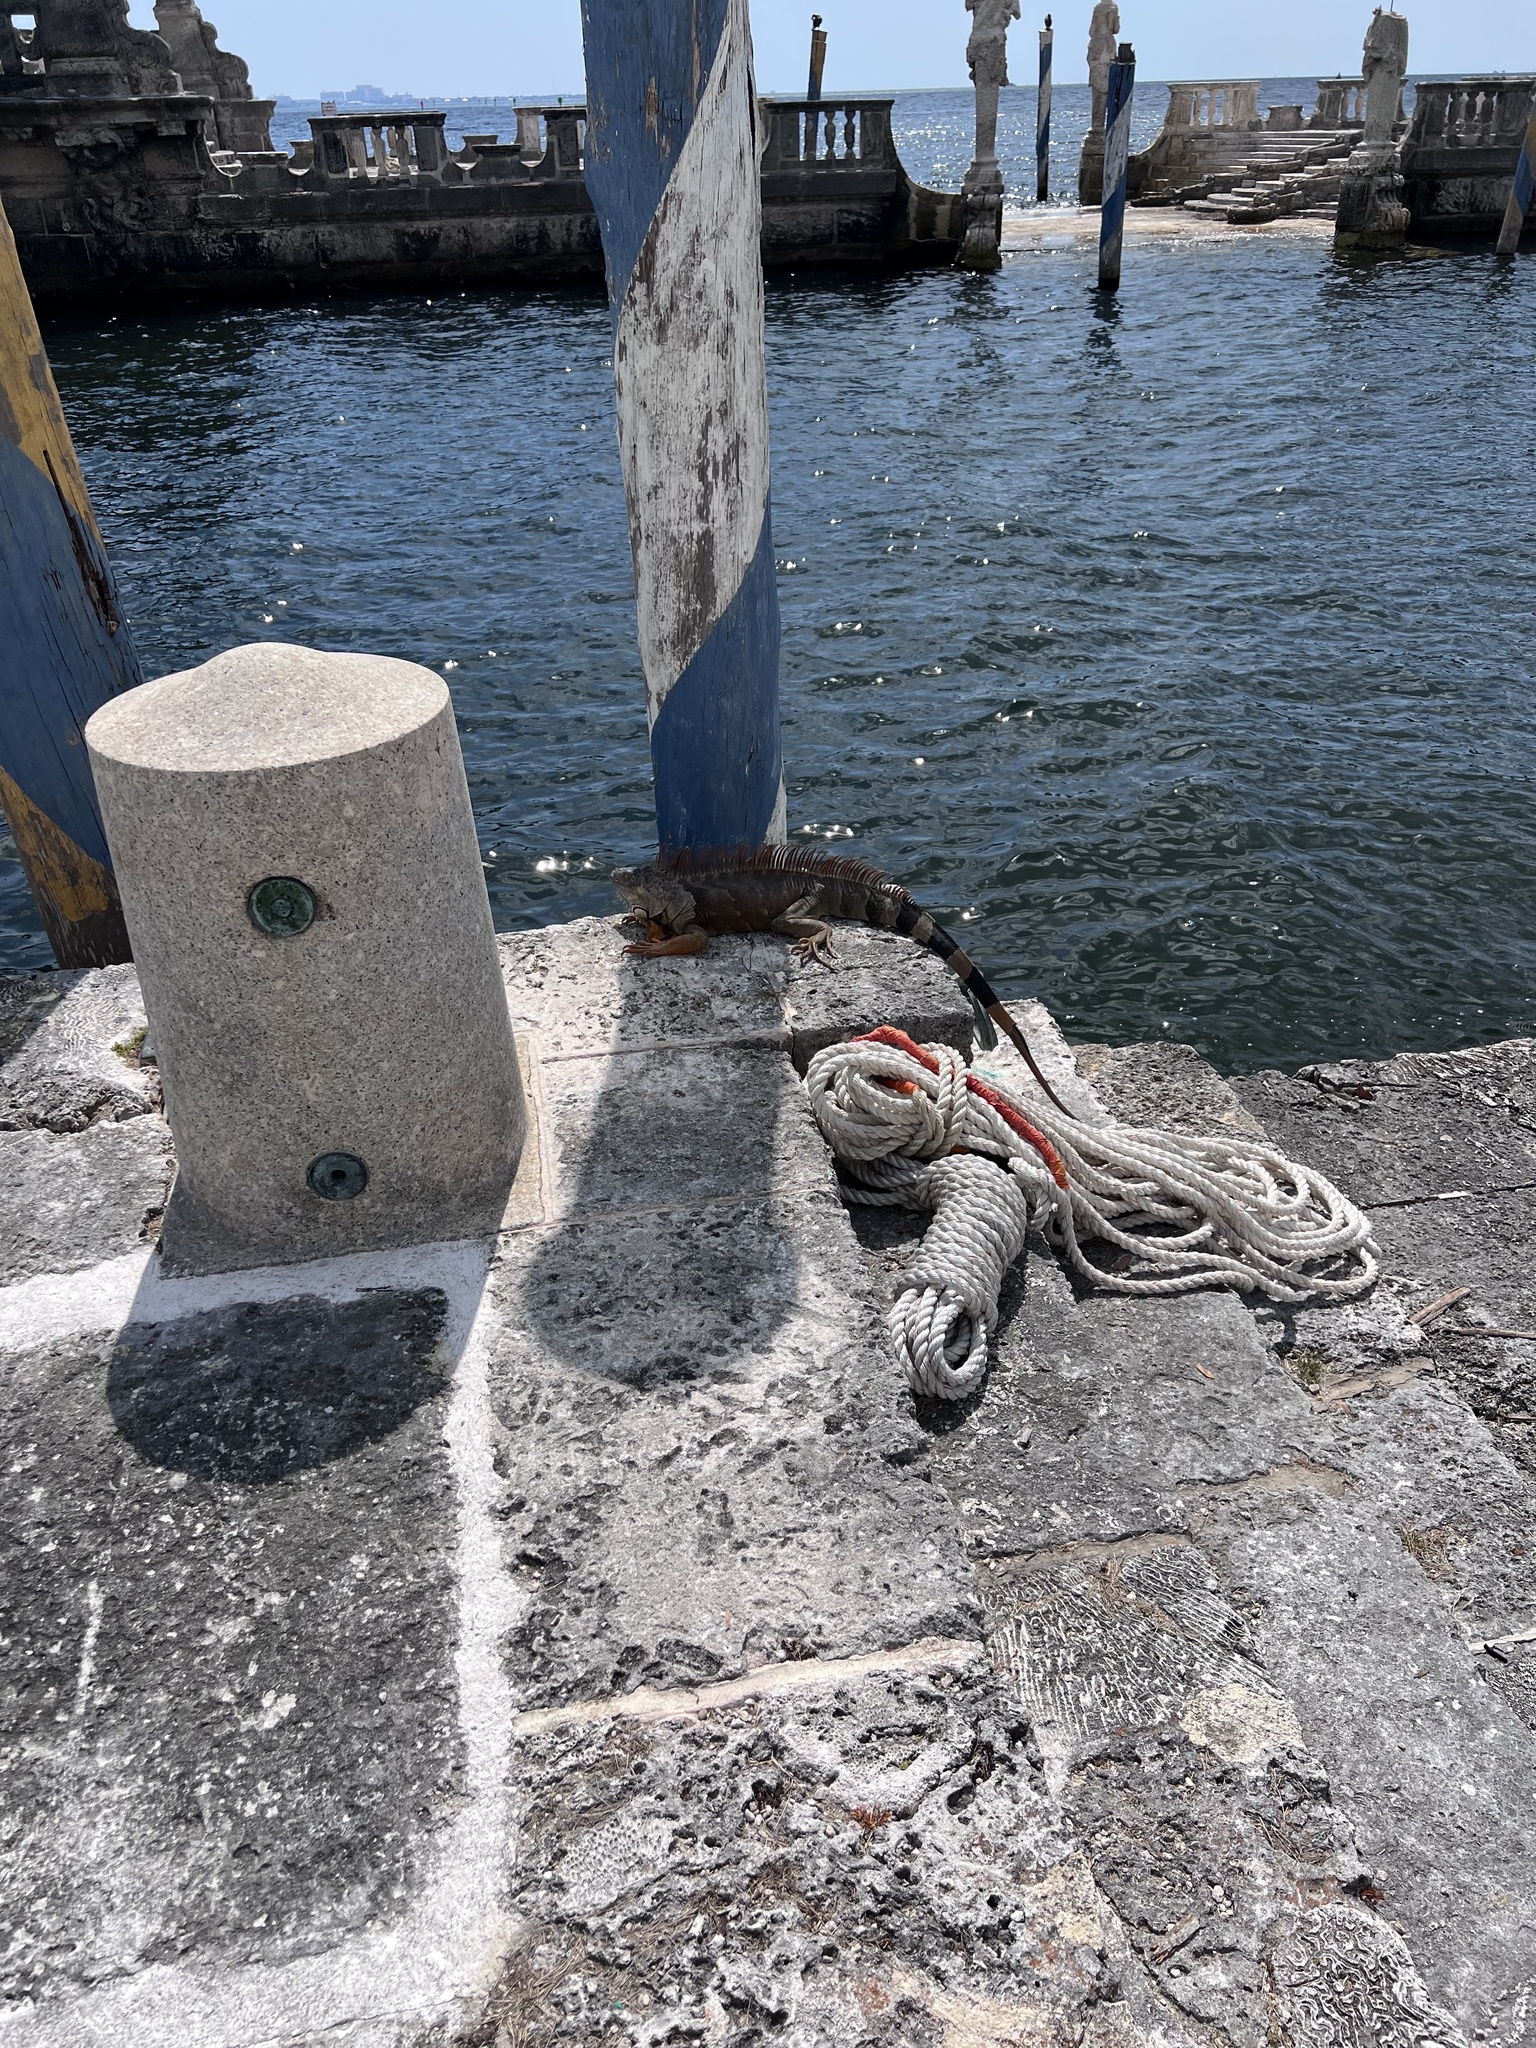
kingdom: Animalia
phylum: Chordata
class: Squamata
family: Iguanidae
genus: Iguana
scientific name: Iguana iguana
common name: Green iguana
